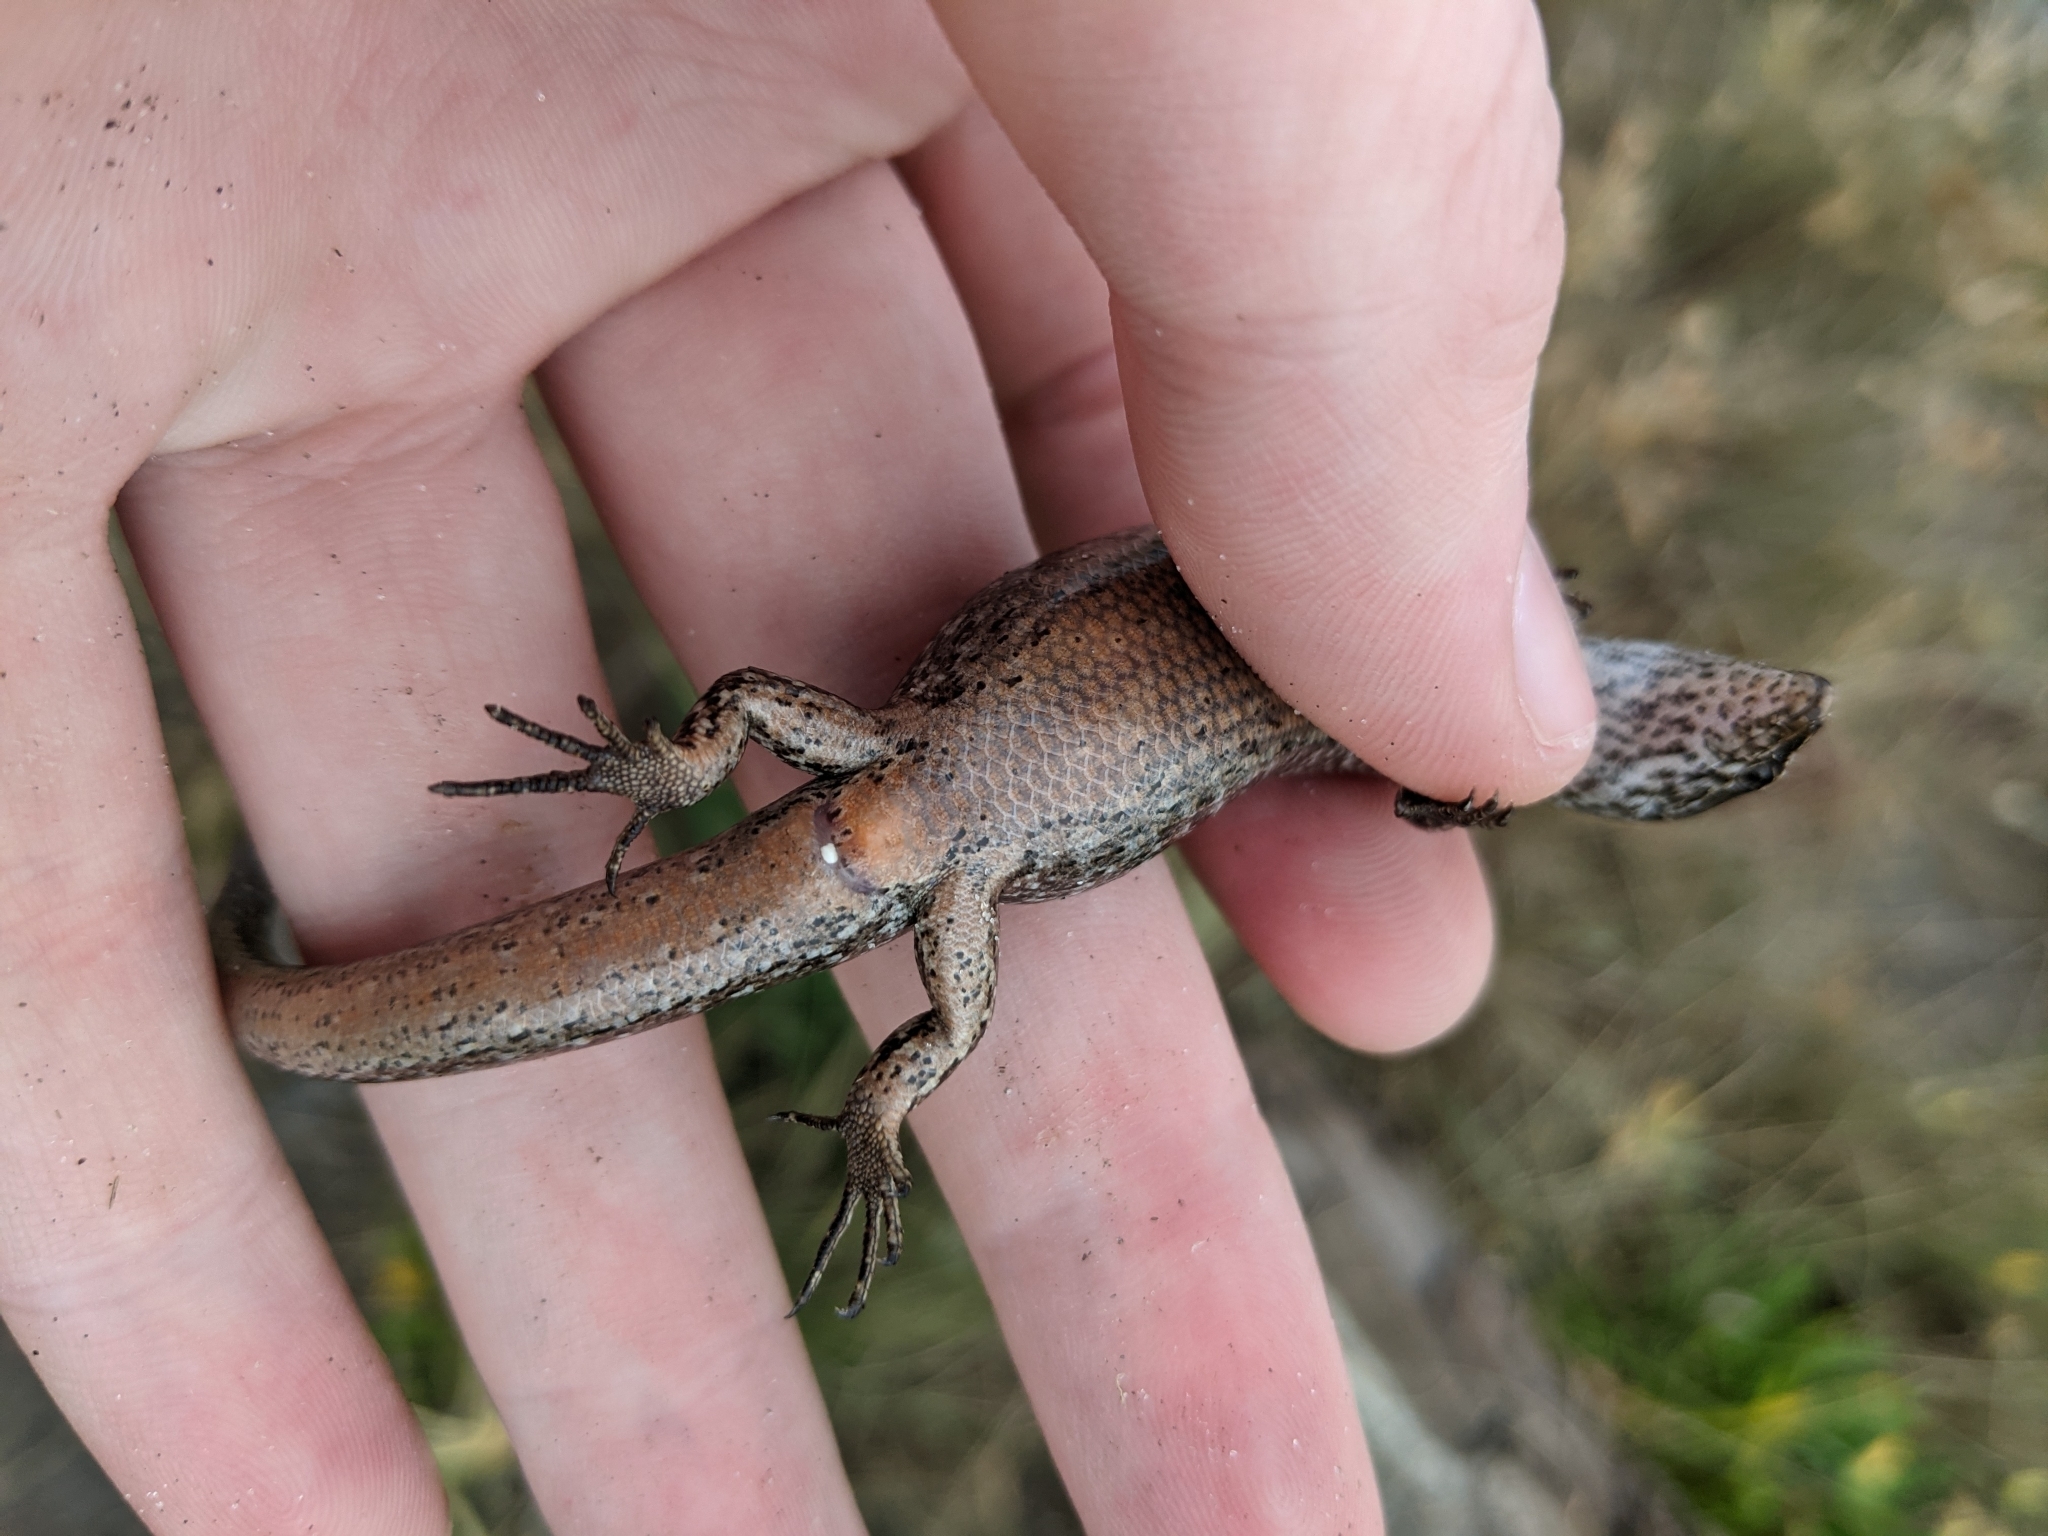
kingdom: Animalia
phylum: Chordata
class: Squamata
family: Scincidae
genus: Oligosoma
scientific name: Oligosoma smithi
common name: Shore skink
